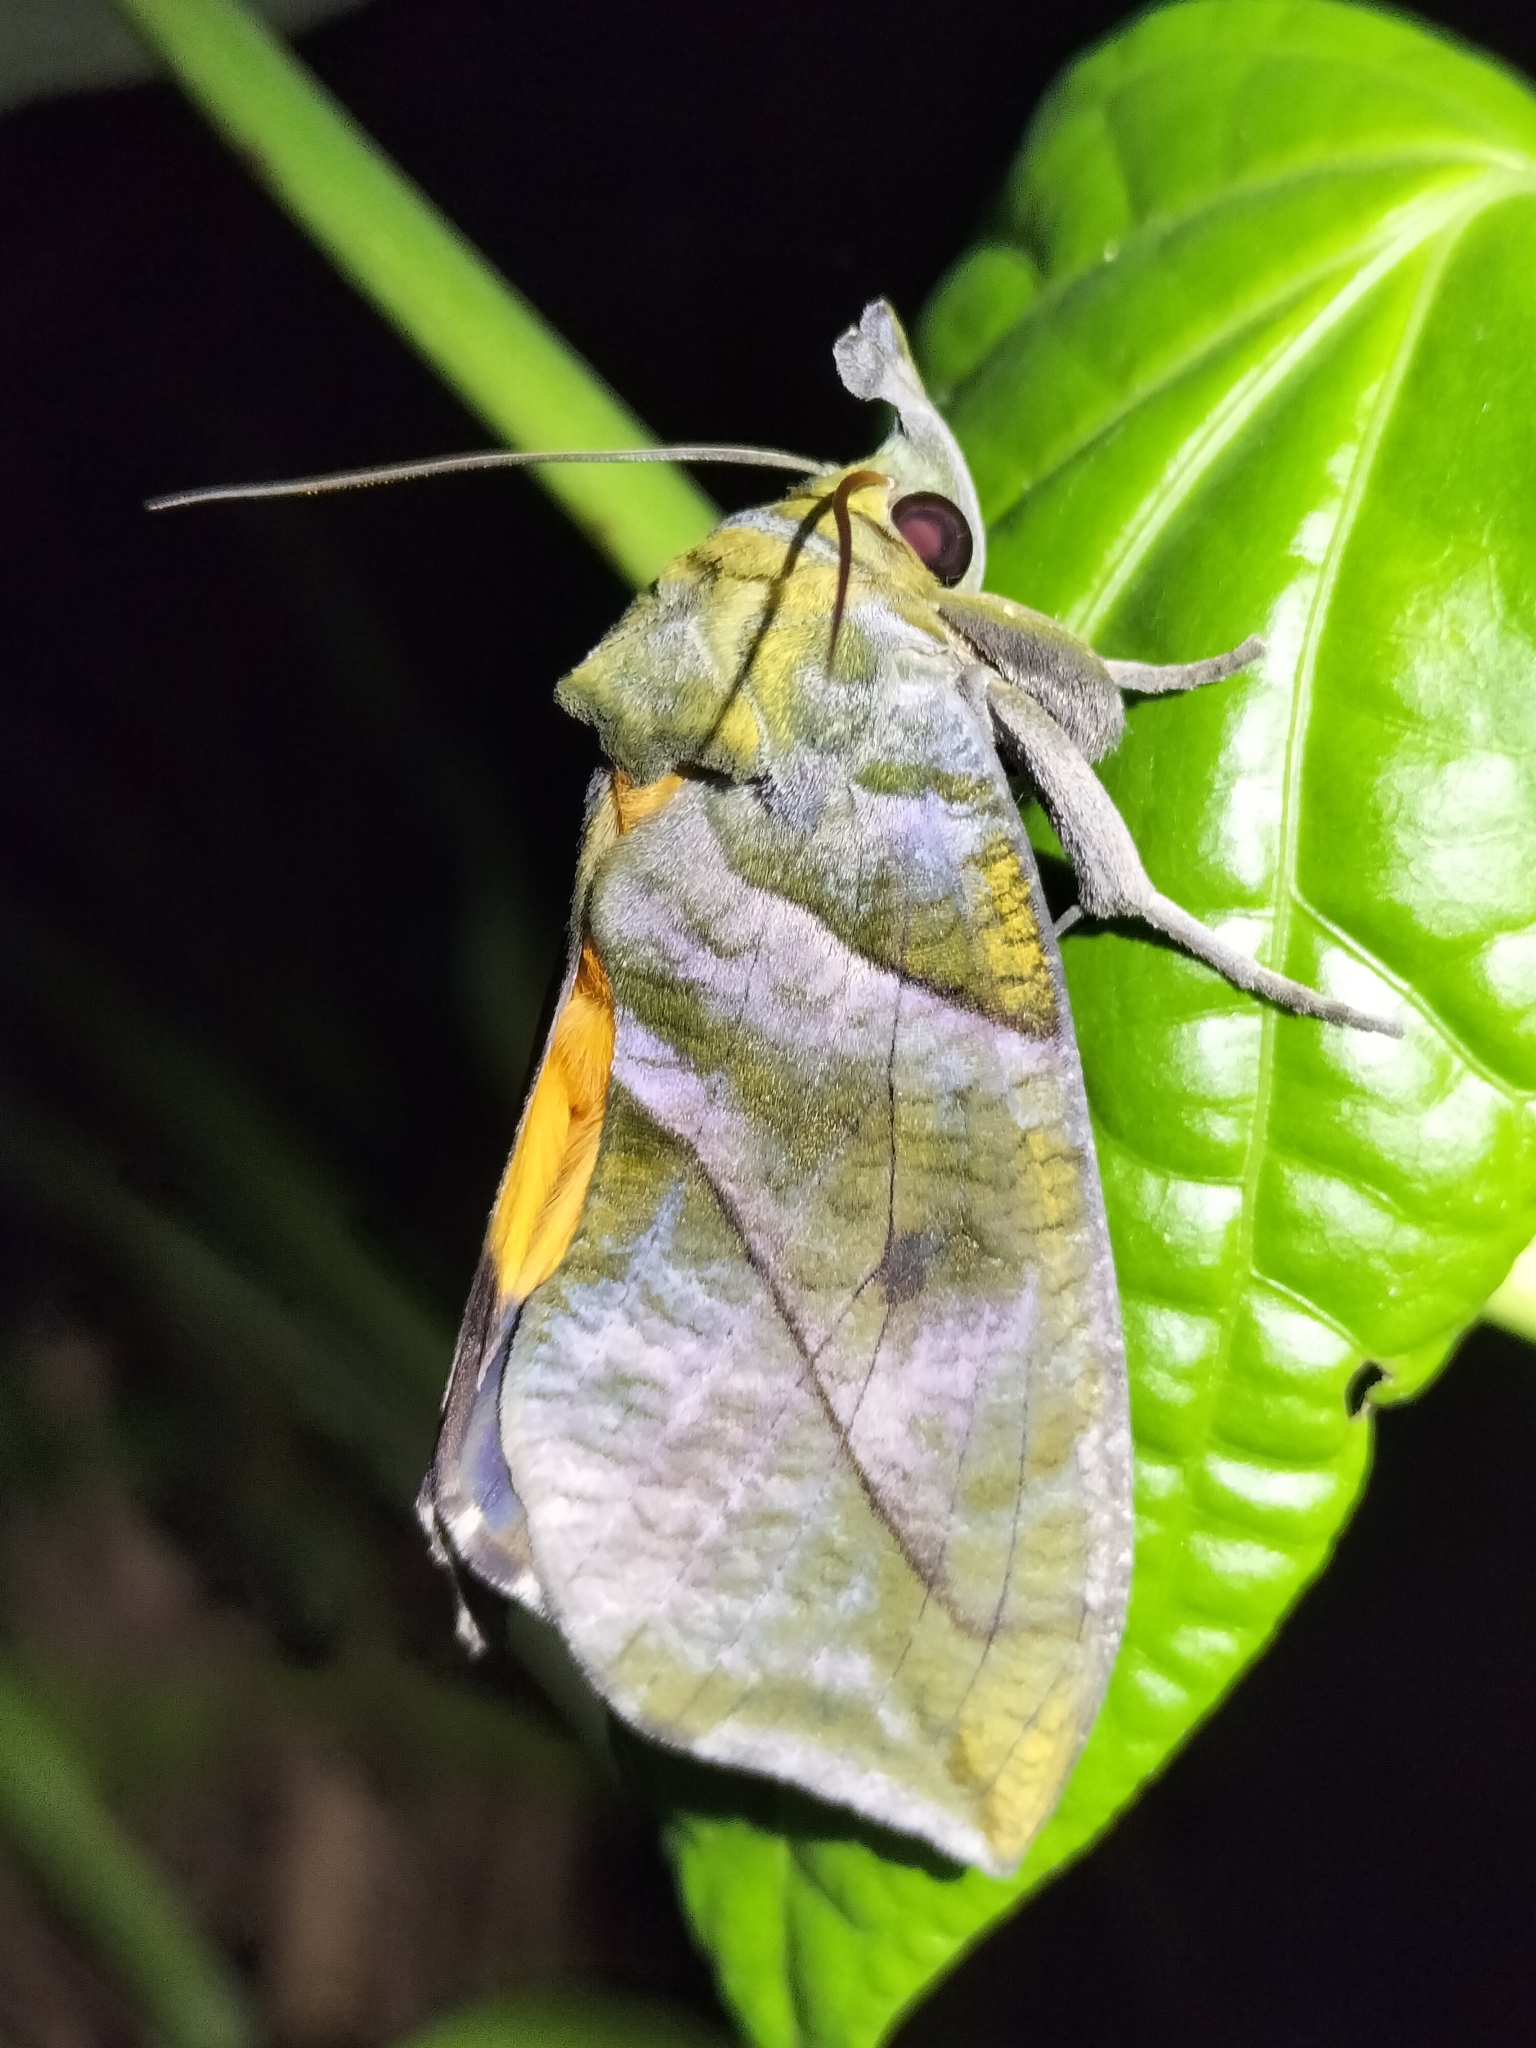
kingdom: Animalia
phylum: Arthropoda
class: Insecta
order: Lepidoptera
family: Erebidae
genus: Eudocima
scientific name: Eudocima cocalus
